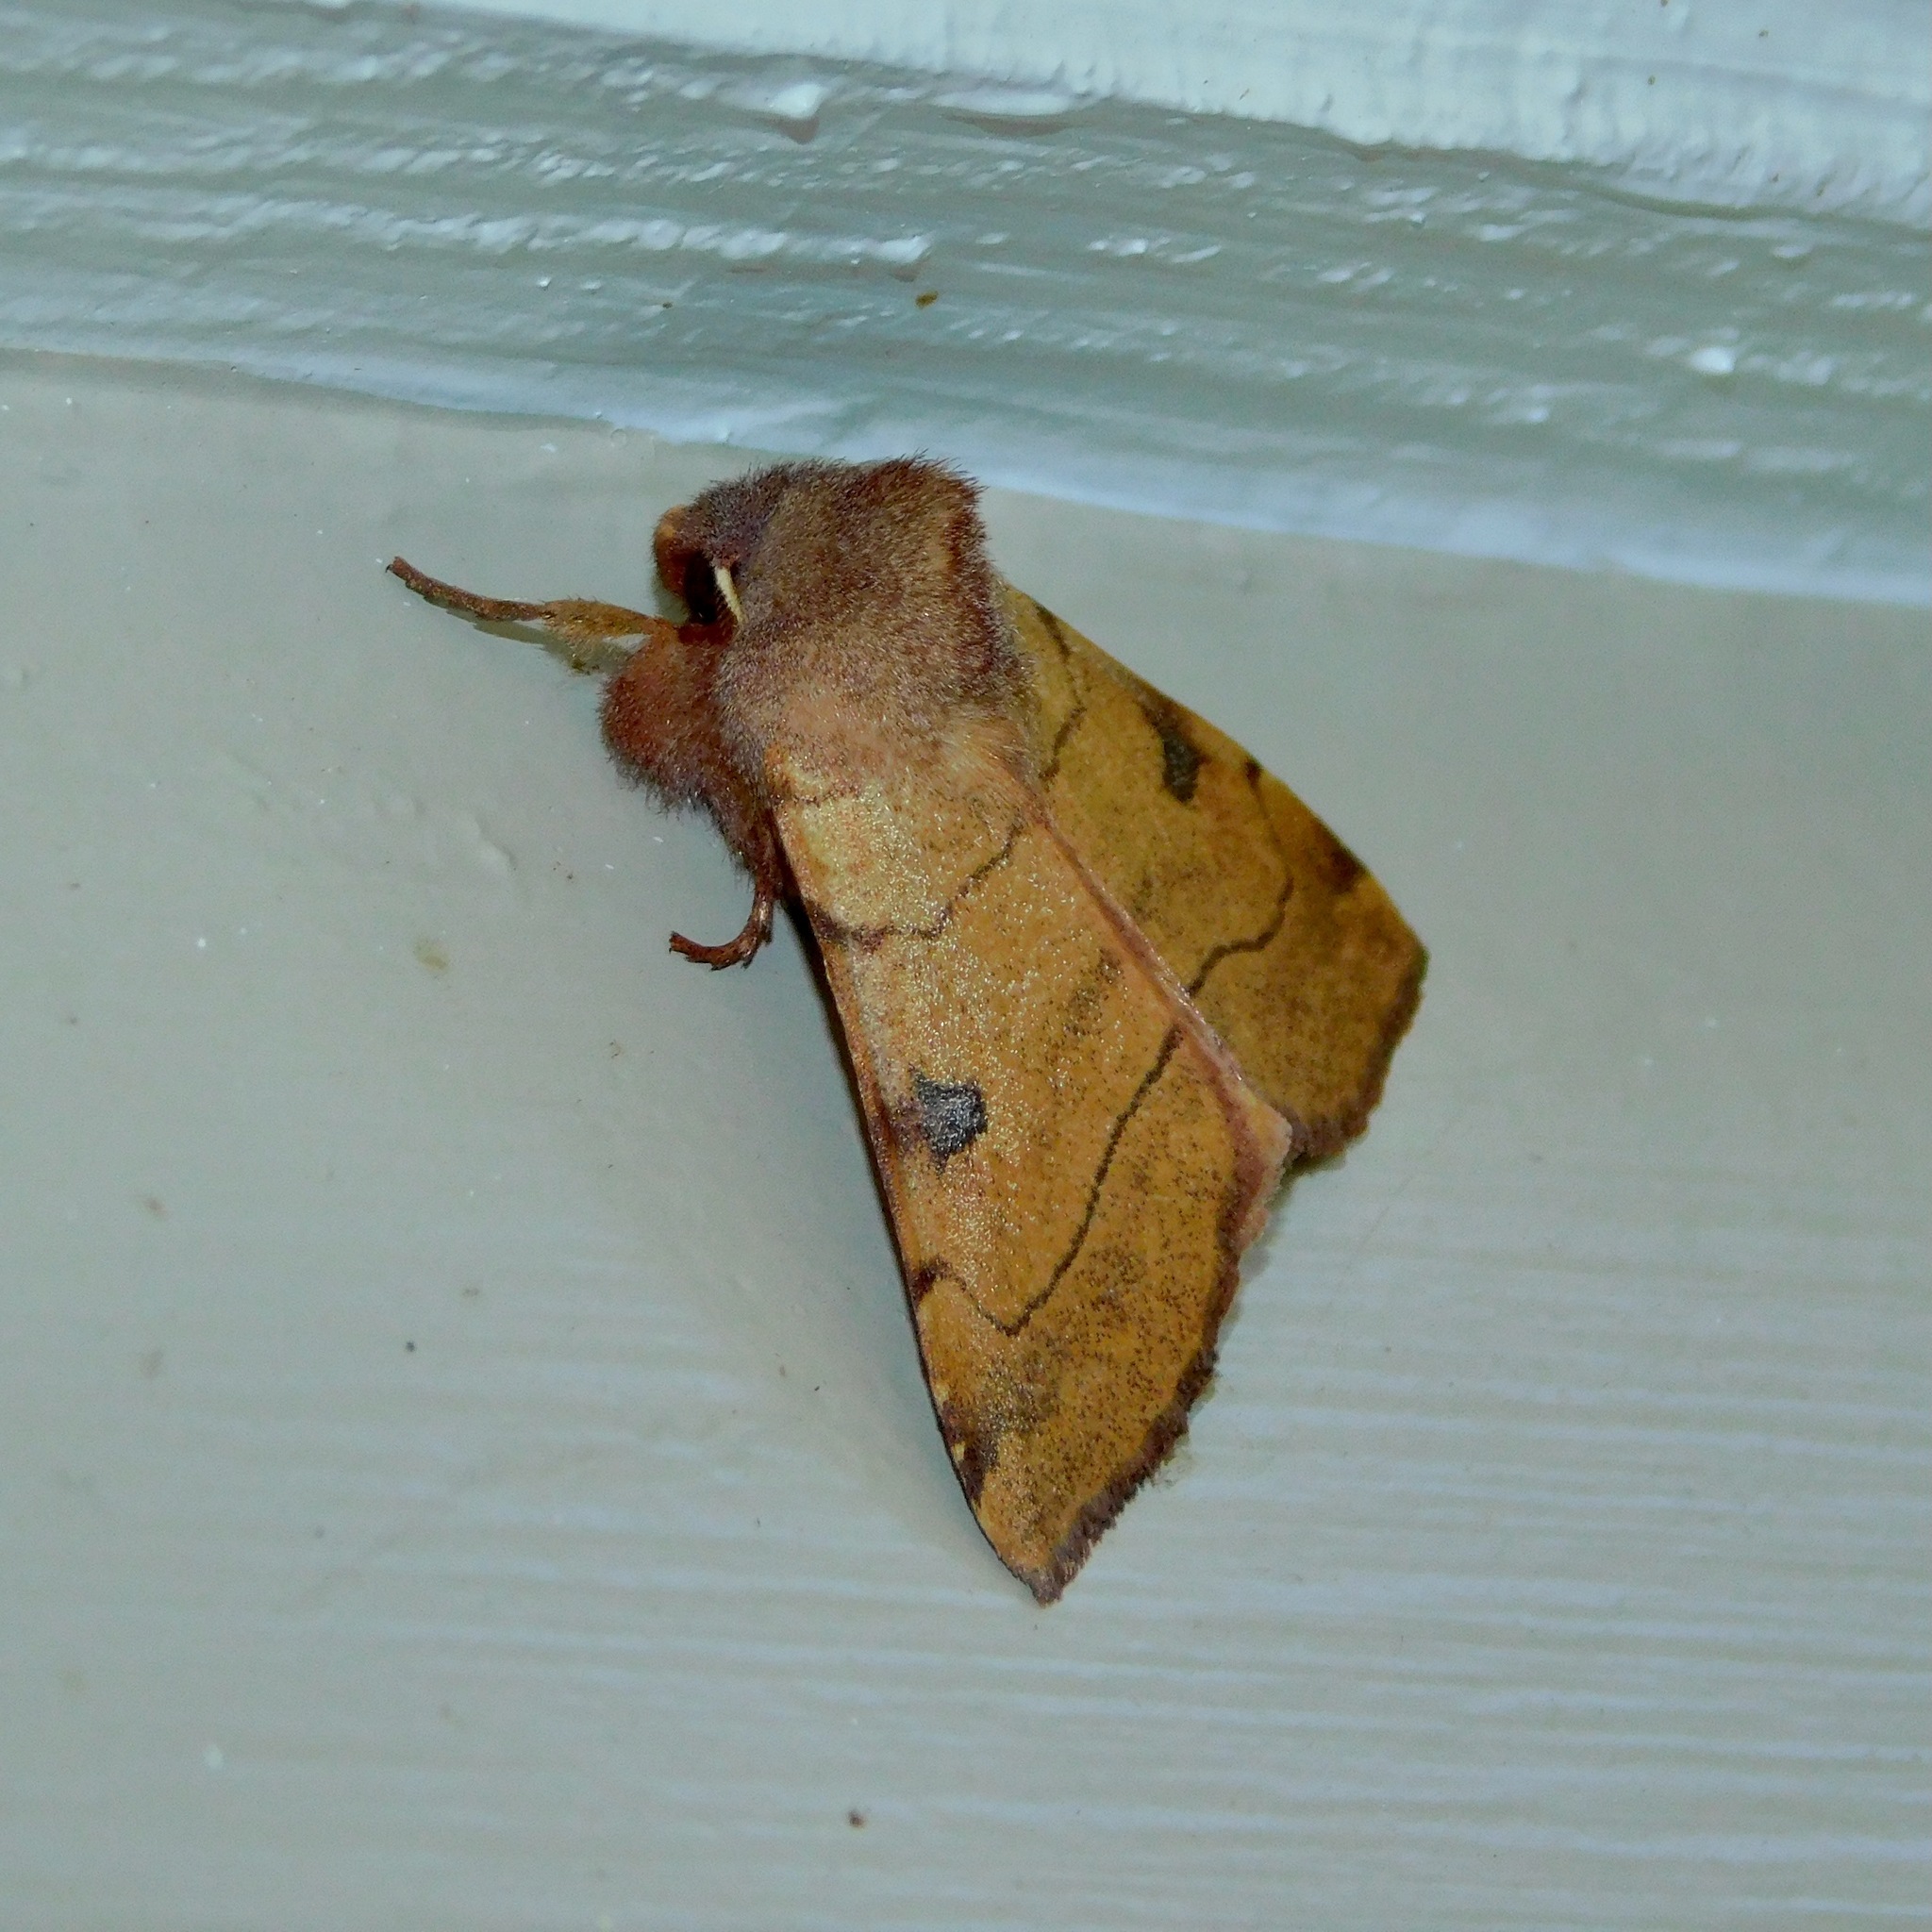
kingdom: Animalia
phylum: Arthropoda
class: Insecta
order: Lepidoptera
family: Noctuidae
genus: Choephora
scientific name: Choephora fungorum
